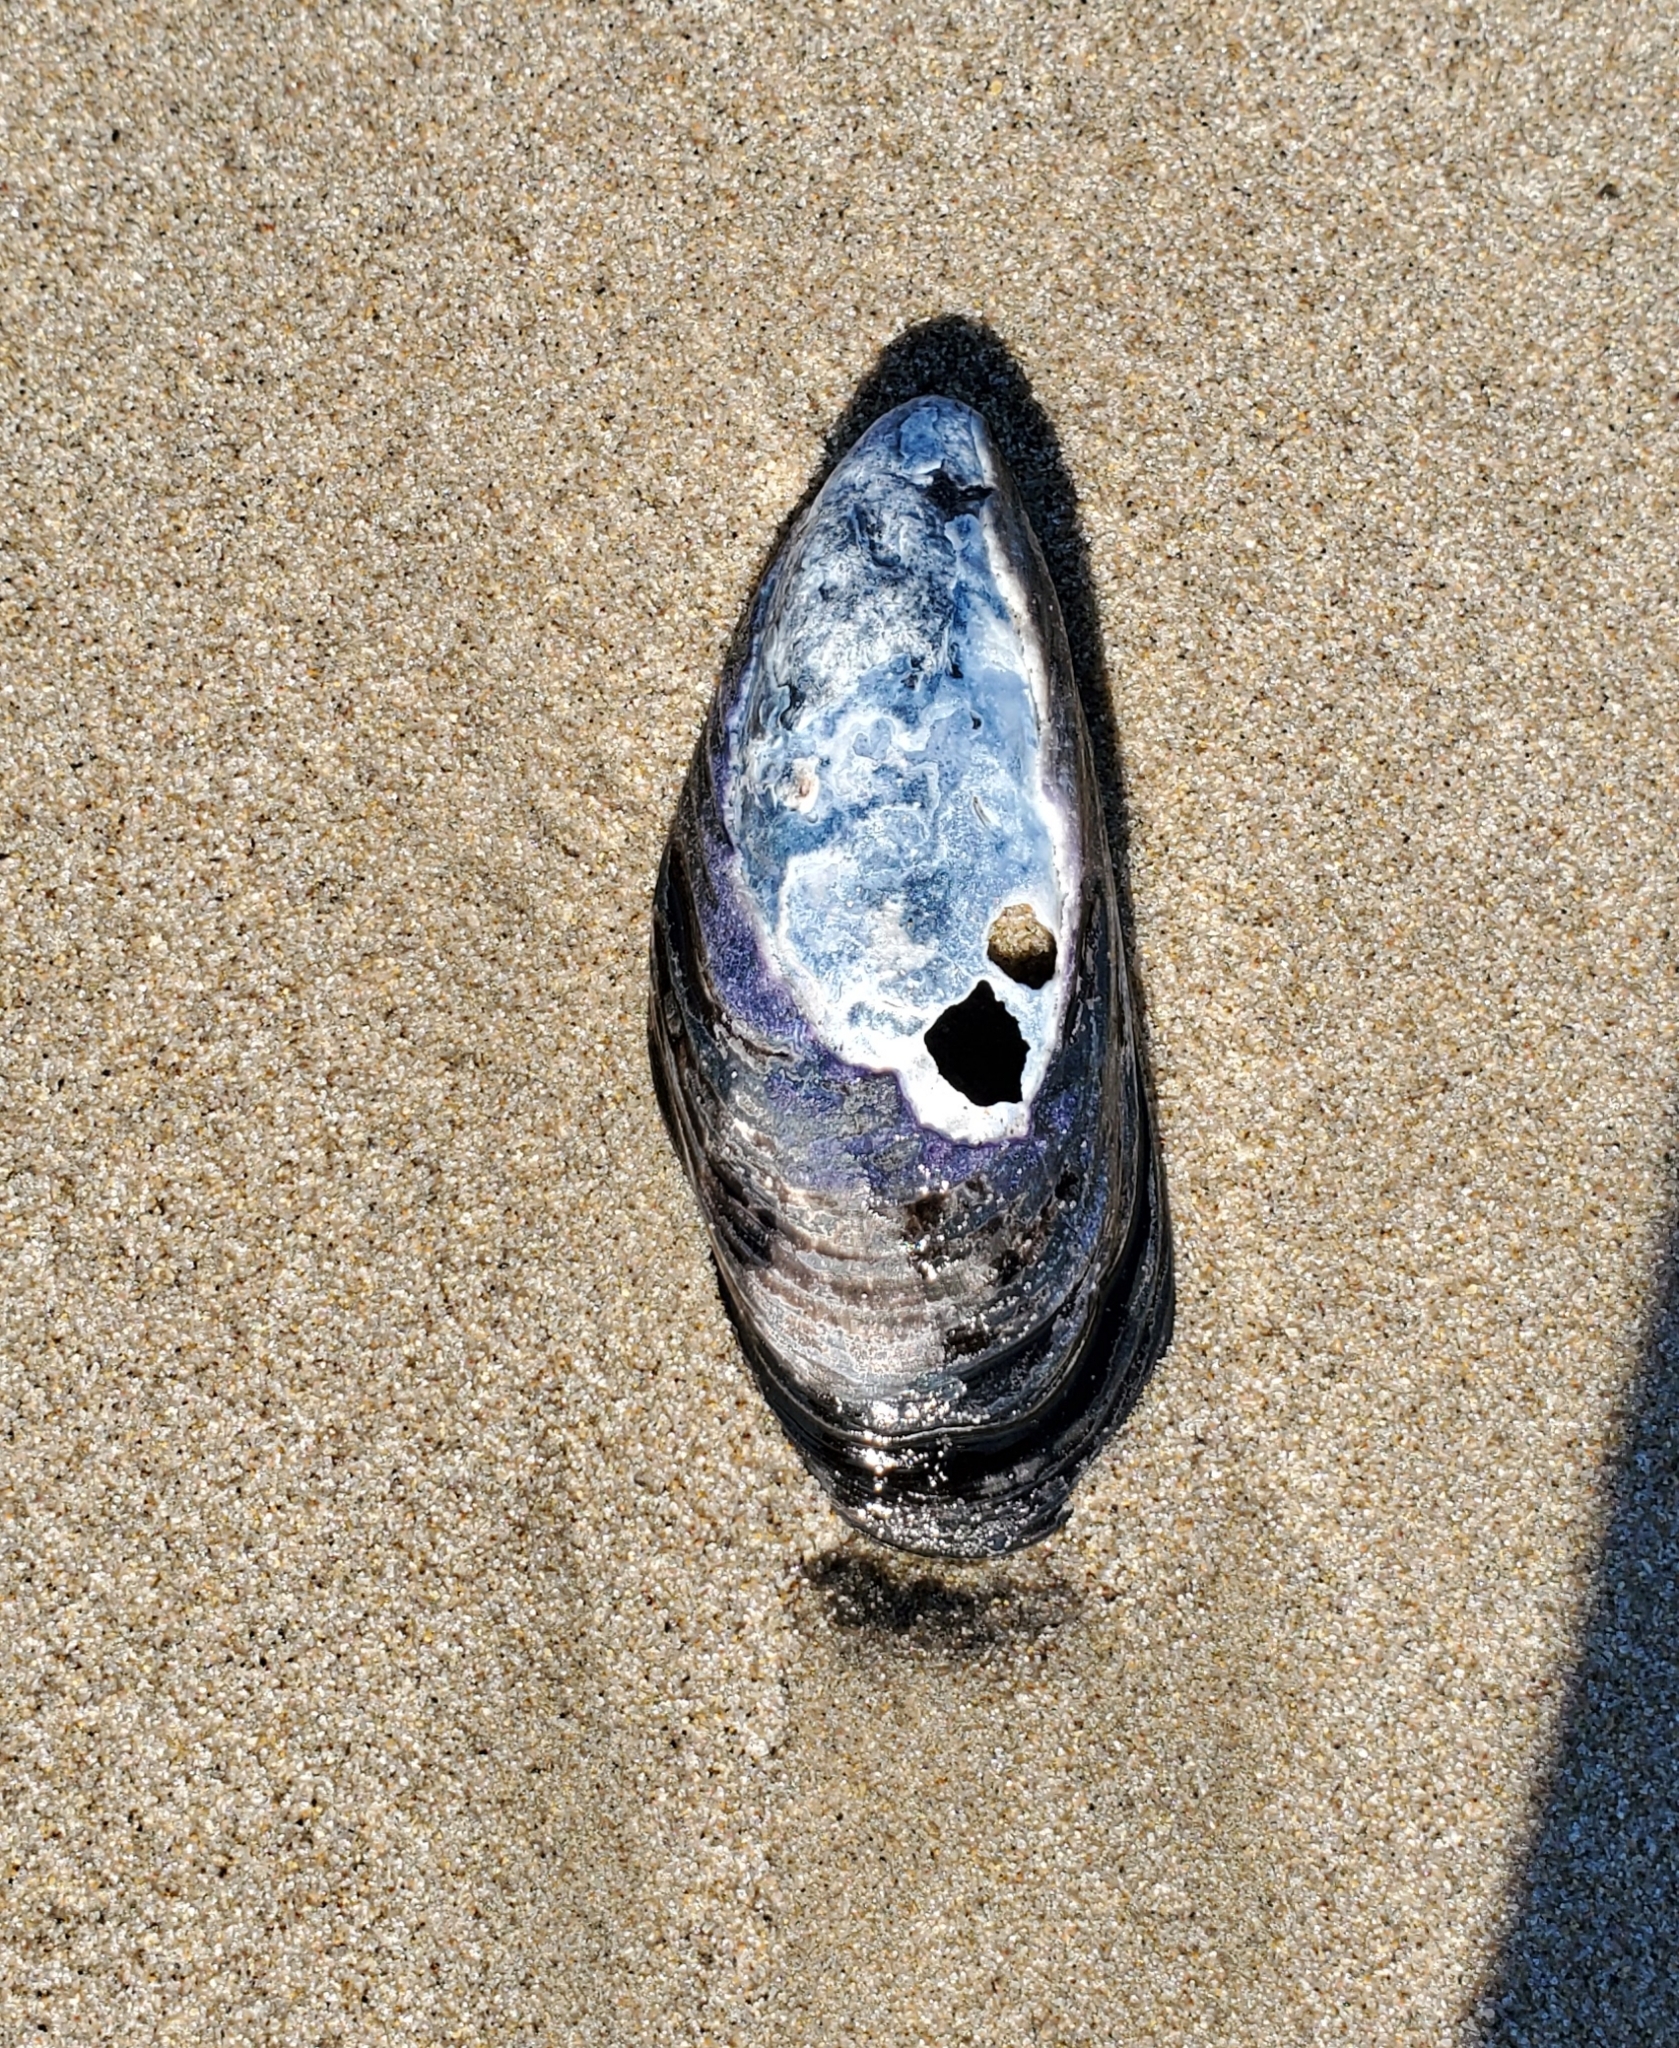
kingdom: Animalia
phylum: Mollusca
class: Bivalvia
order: Mytilida
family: Mytilidae
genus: Mytilus
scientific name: Mytilus californianus
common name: California mussel
